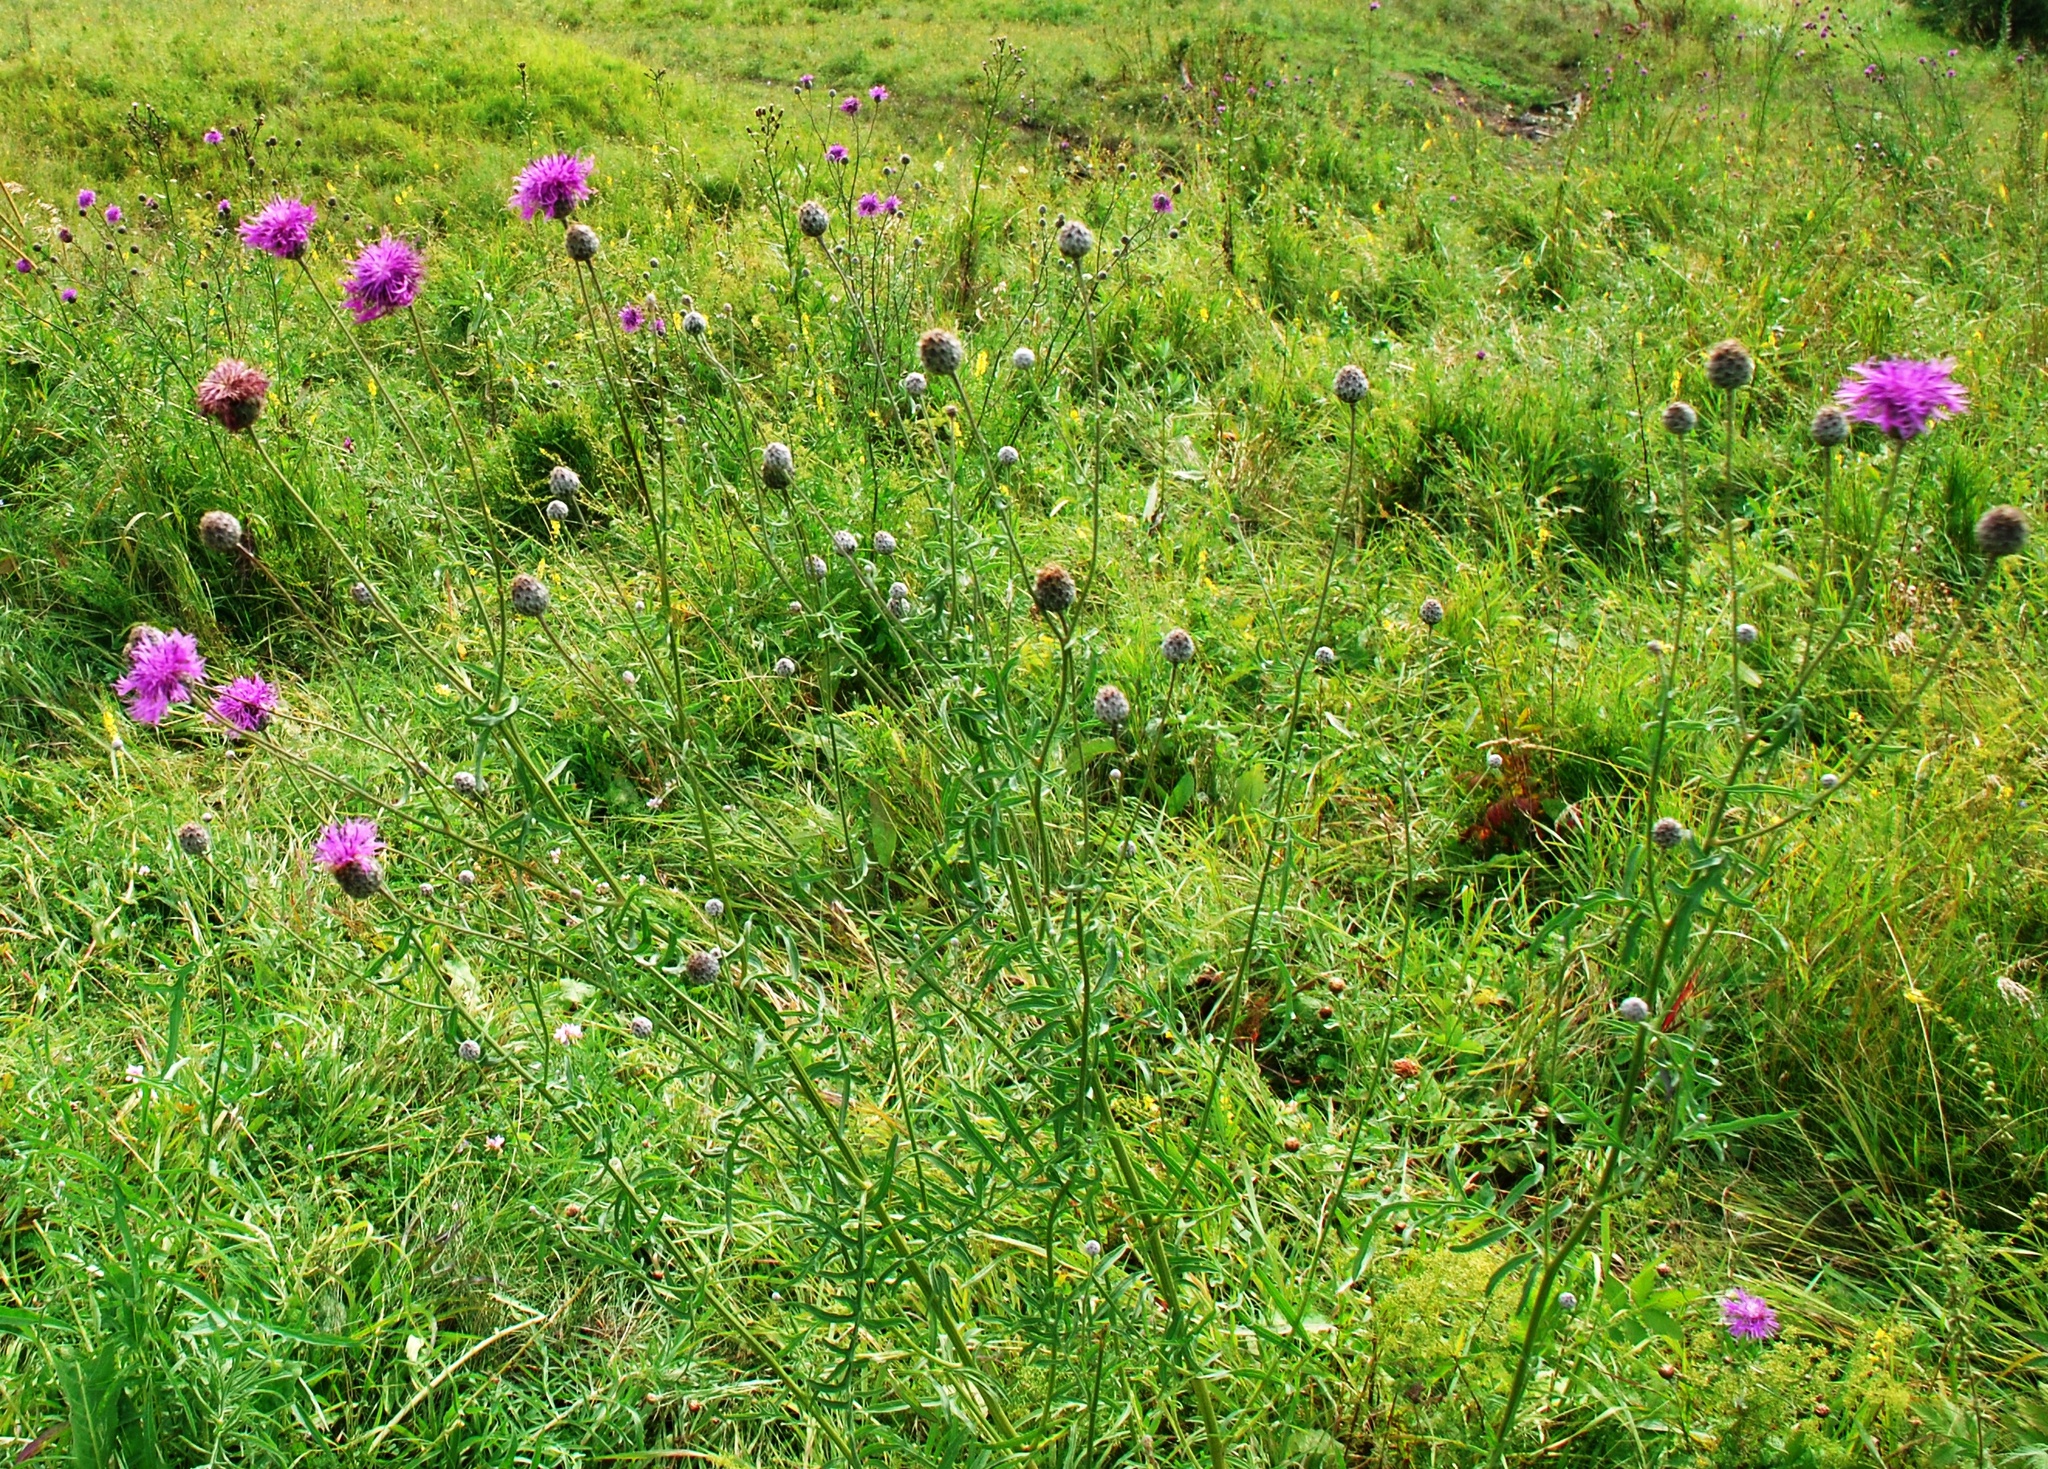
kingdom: Plantae
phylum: Tracheophyta
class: Magnoliopsida
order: Asterales
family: Asteraceae
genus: Centaurea
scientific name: Centaurea scabiosa
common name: Greater knapweed
